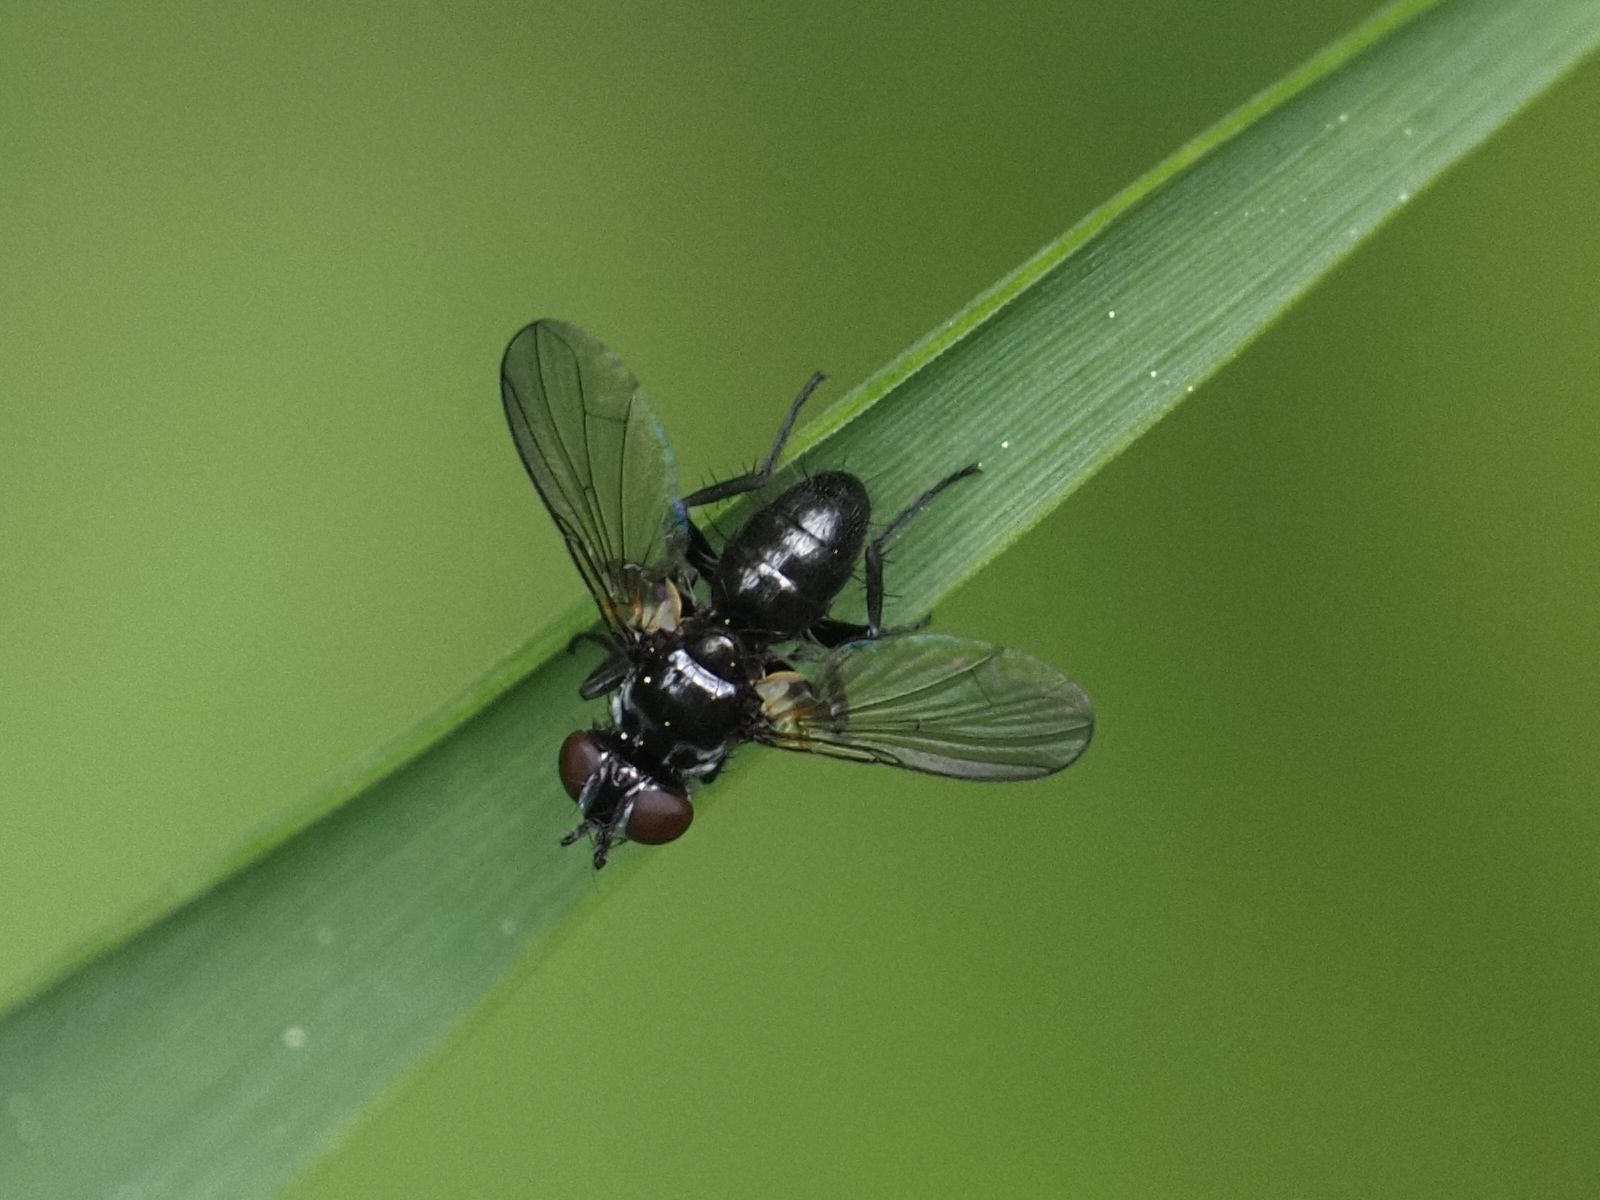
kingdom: Animalia
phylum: Arthropoda
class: Insecta
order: Diptera
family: Tachinidae
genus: Phania
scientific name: Phania funesta
